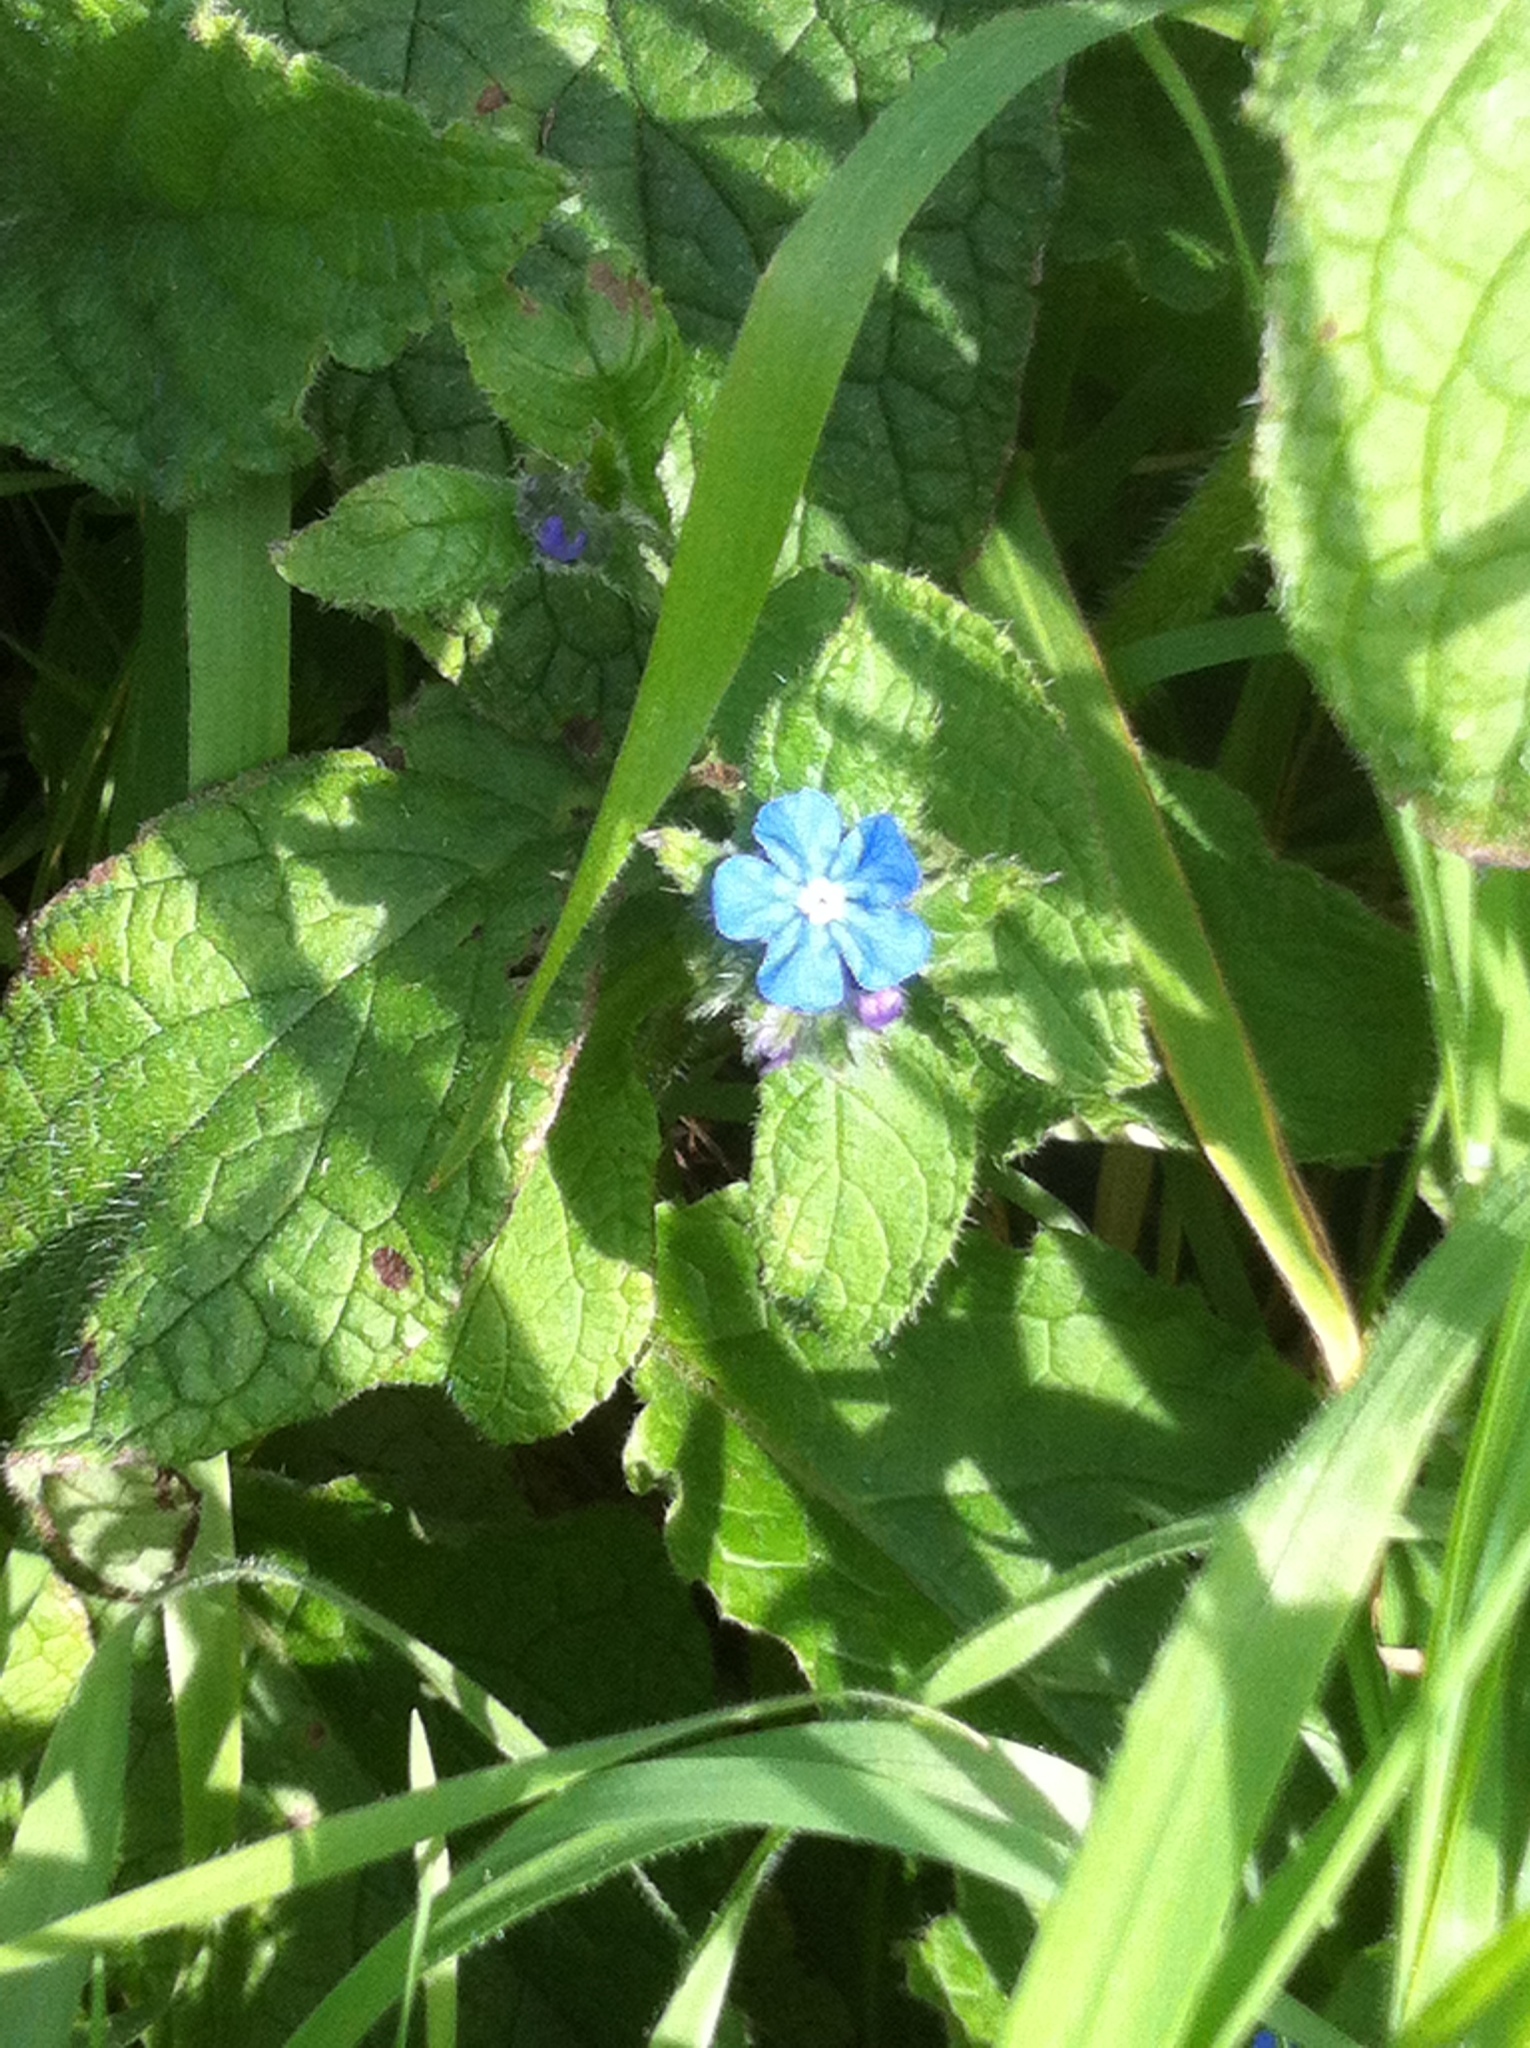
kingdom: Plantae
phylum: Tracheophyta
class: Magnoliopsida
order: Boraginales
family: Boraginaceae
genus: Pentaglottis
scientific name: Pentaglottis sempervirens
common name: Green alkanet
